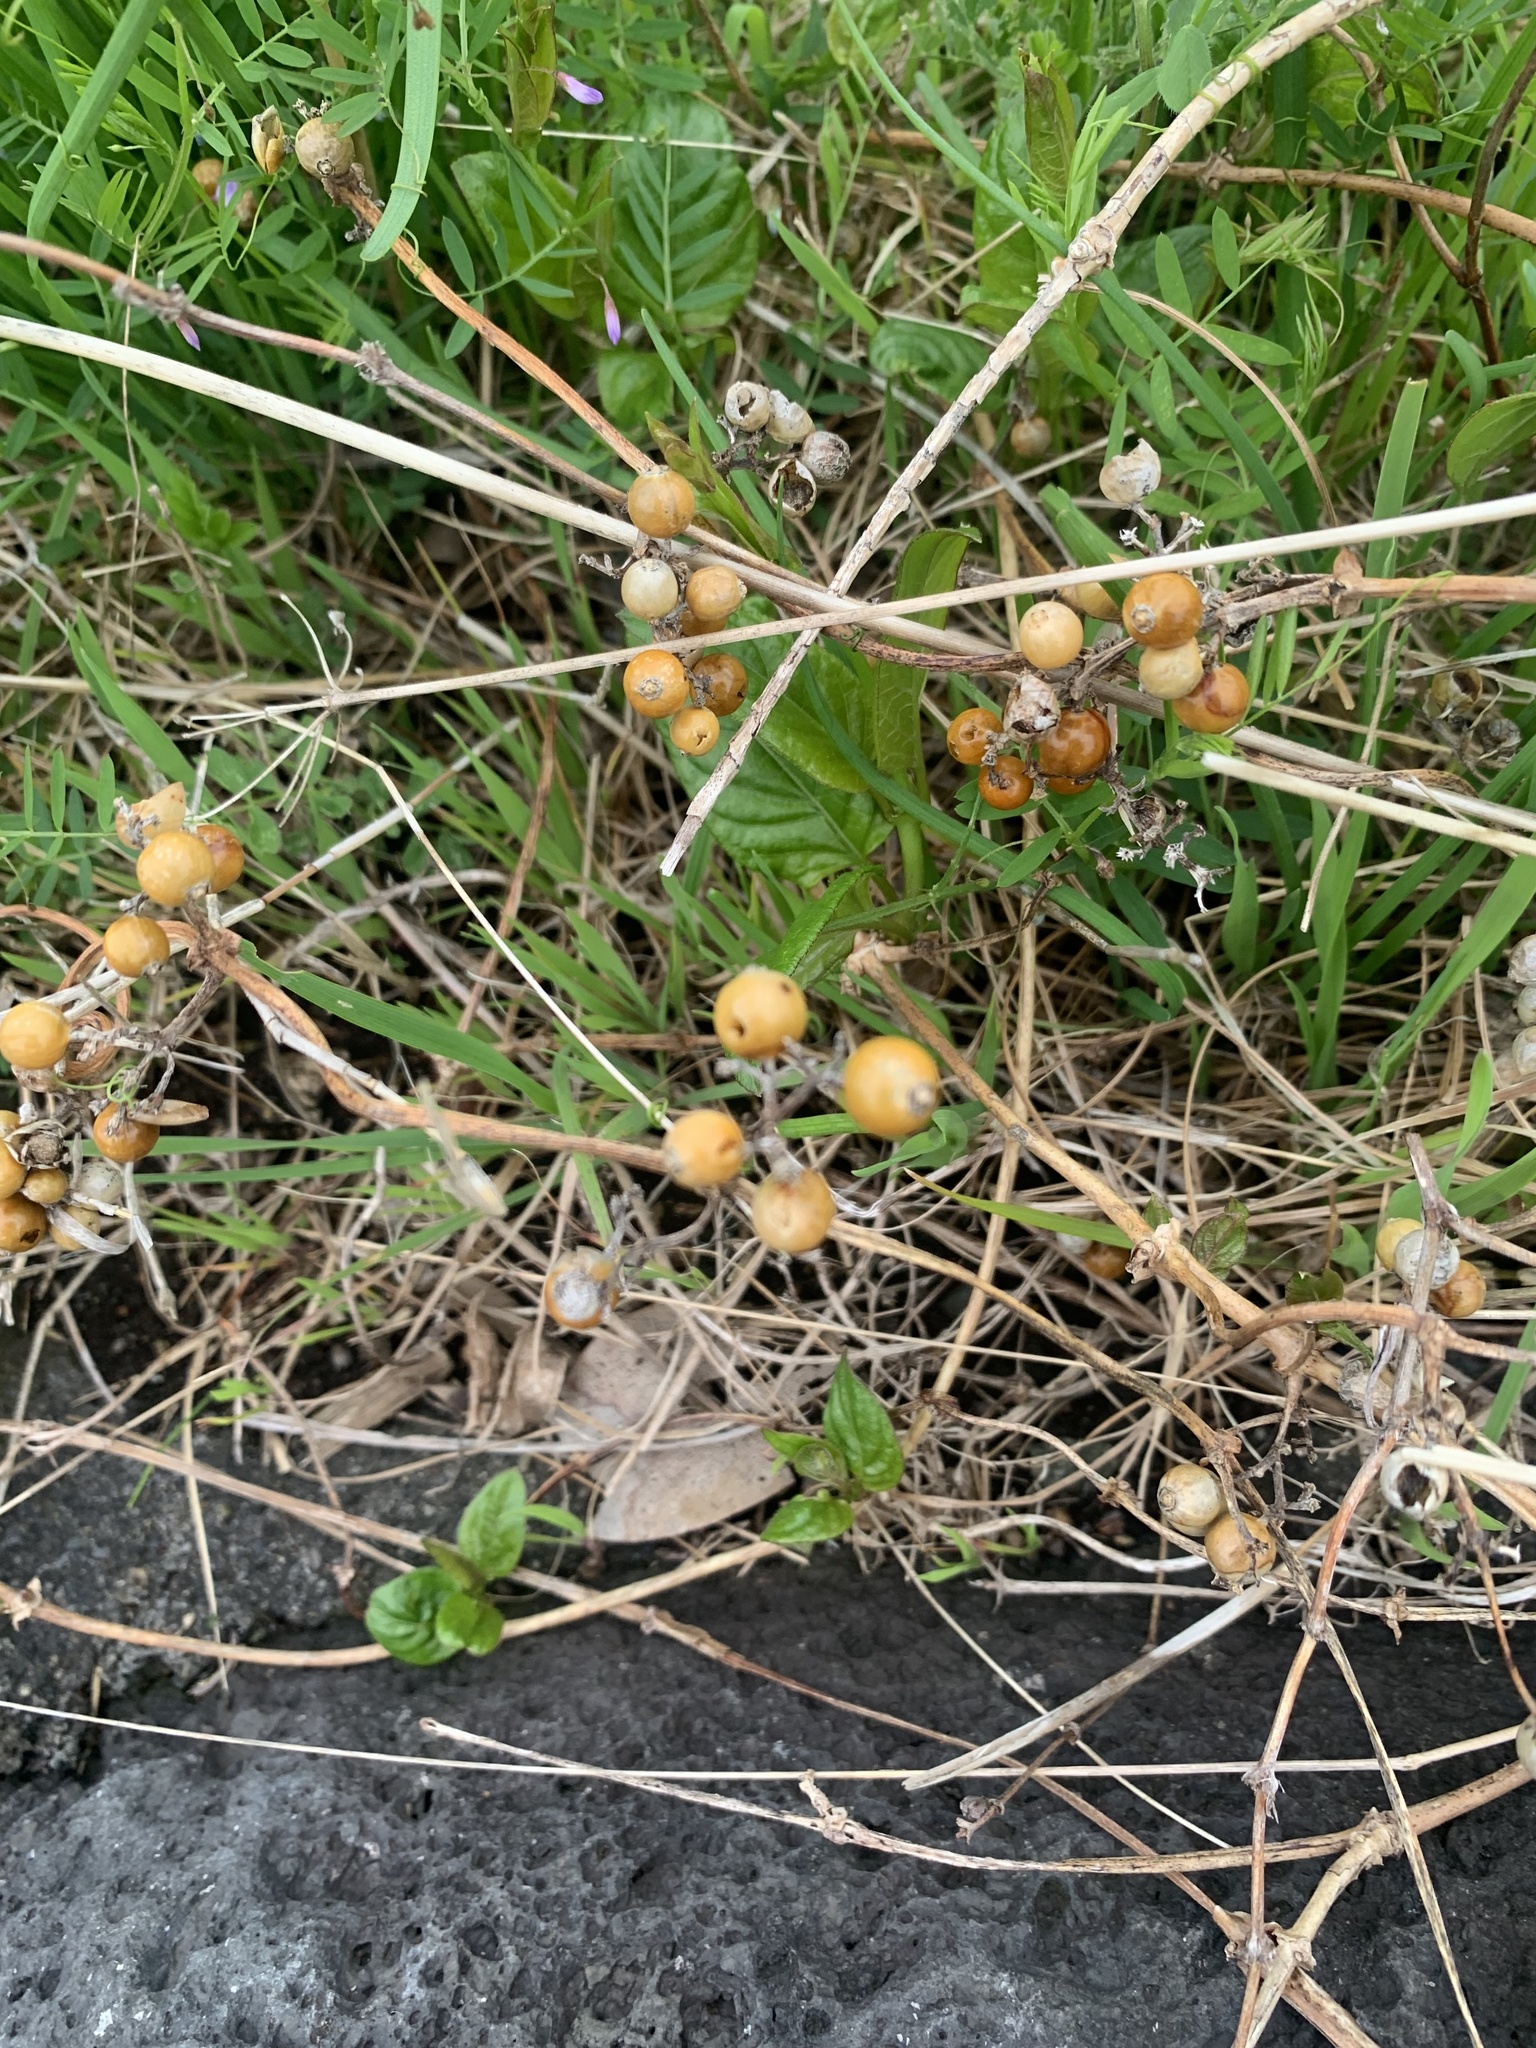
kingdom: Plantae
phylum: Tracheophyta
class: Magnoliopsida
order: Gentianales
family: Rubiaceae
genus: Paederia
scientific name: Paederia foetida
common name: Stinkvine
